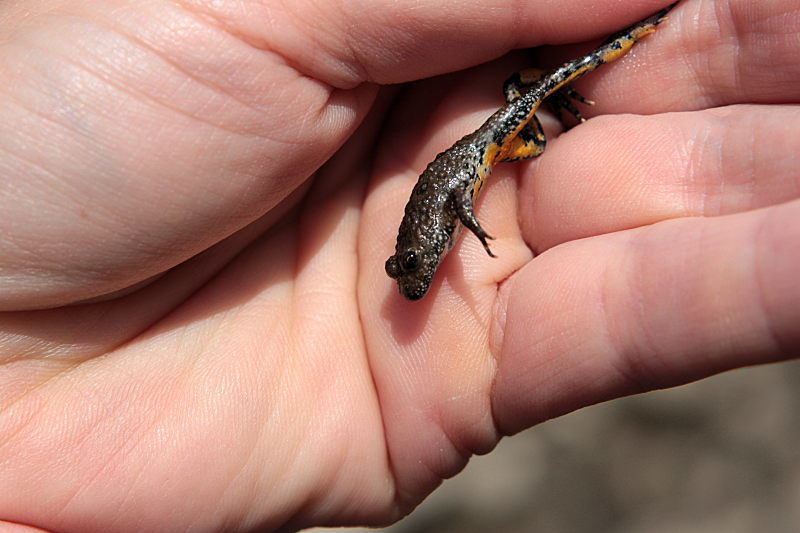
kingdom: Animalia
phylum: Chordata
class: Amphibia
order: Anura
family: Bombinatoridae
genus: Bombina
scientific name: Bombina bombina
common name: Fire-bellied toad
